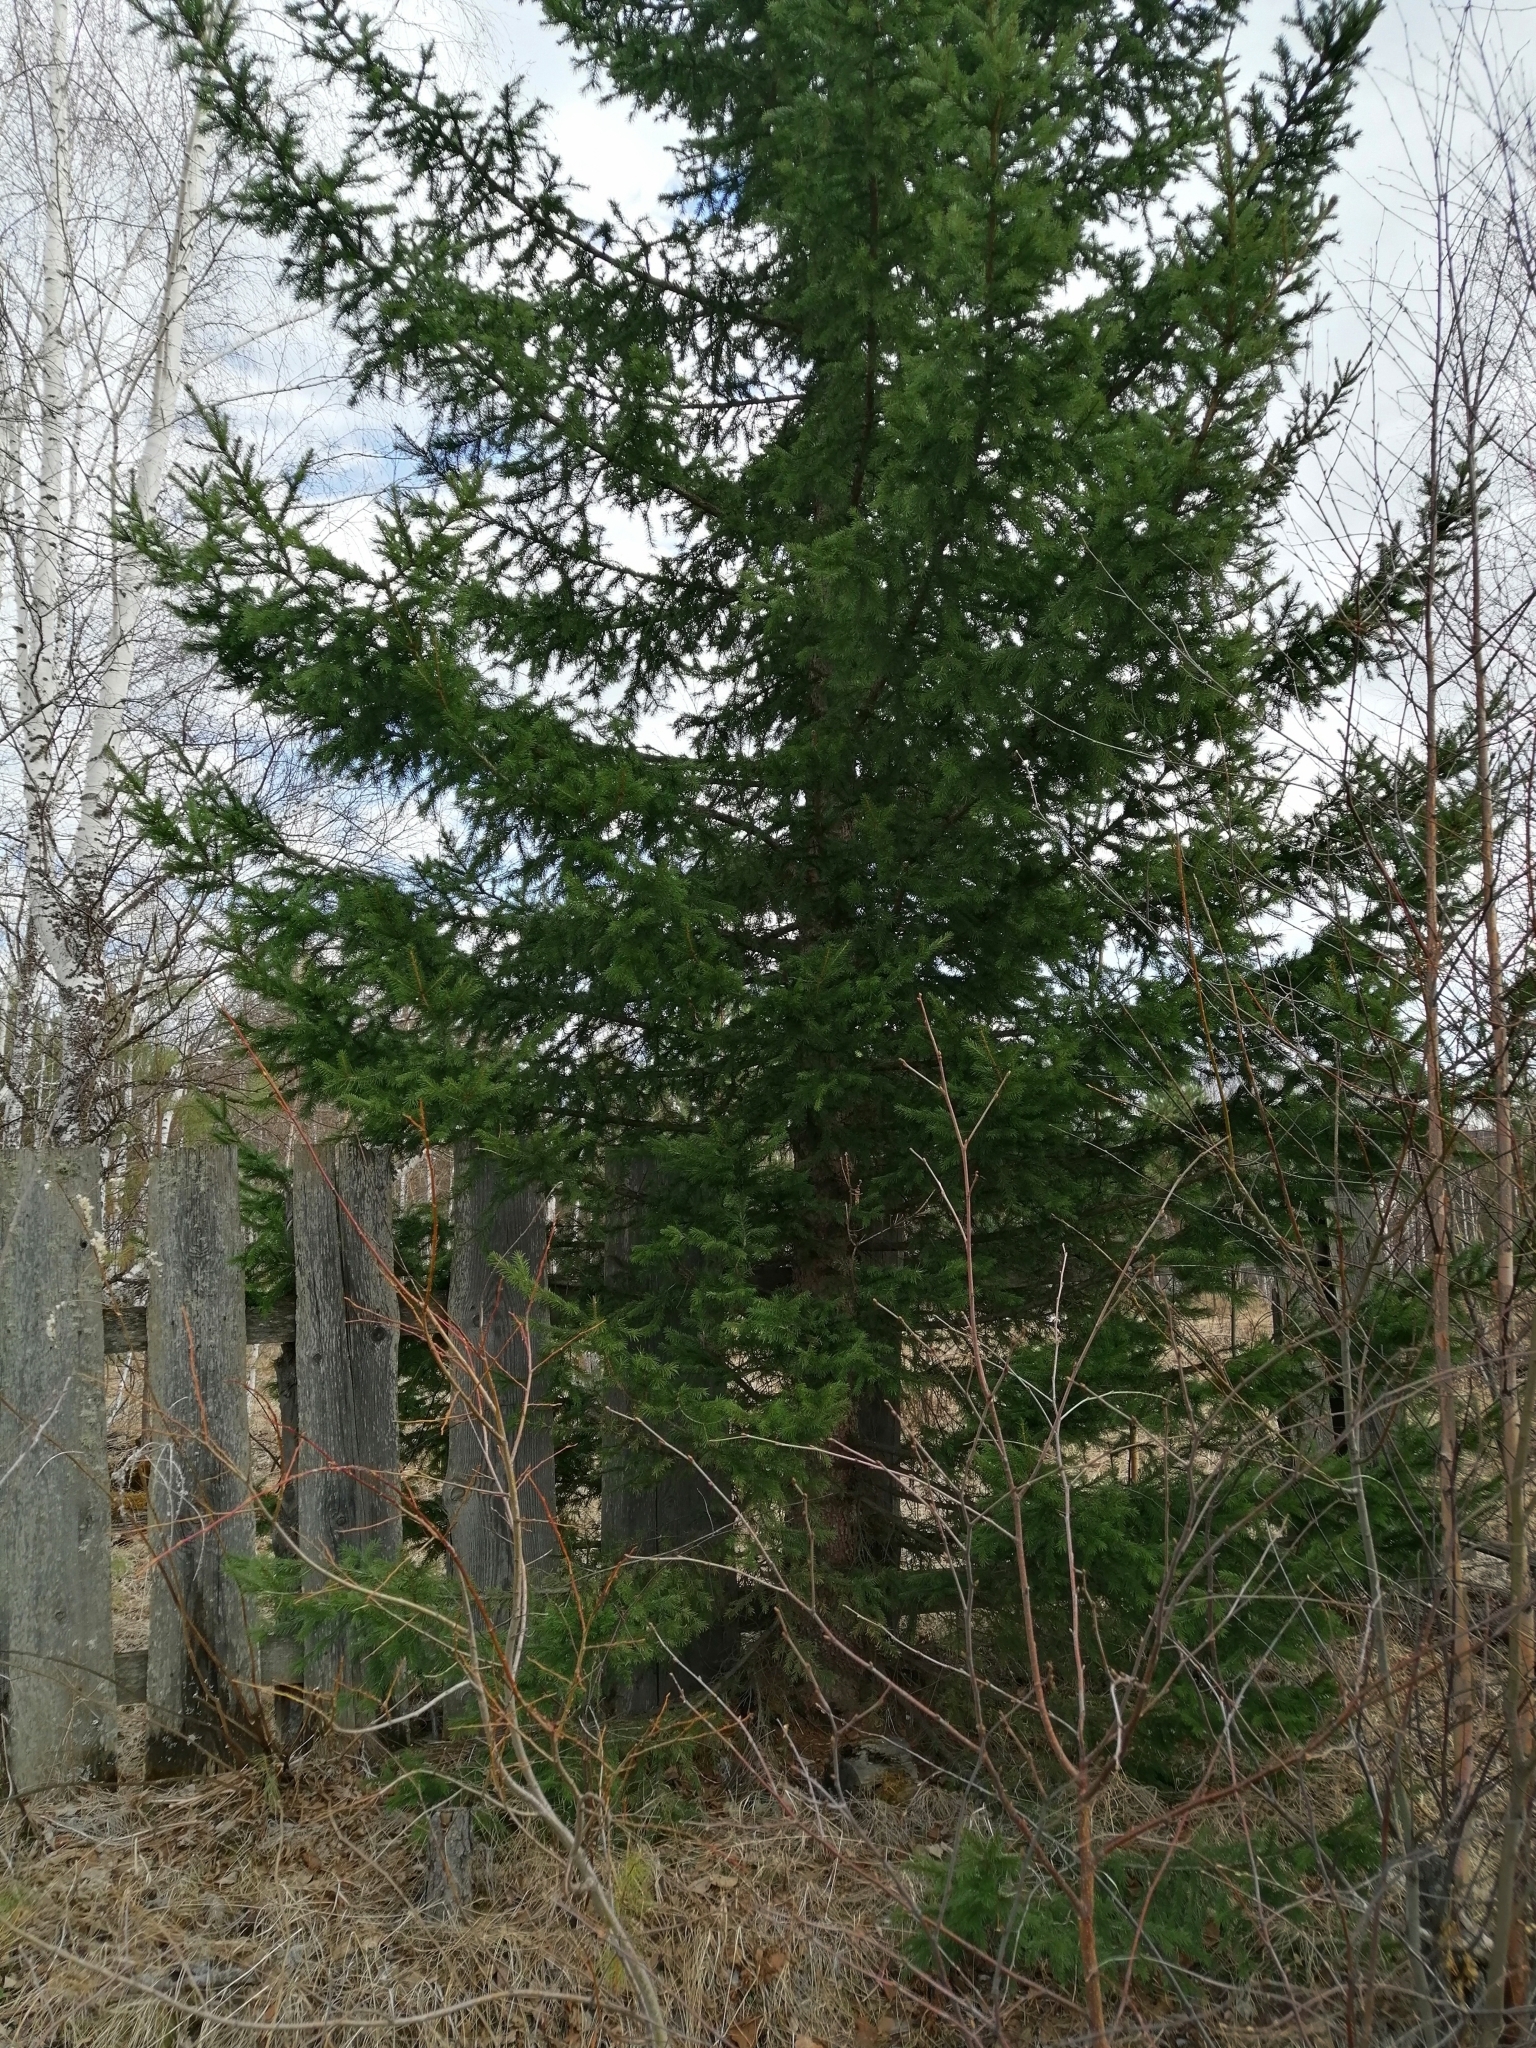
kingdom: Plantae
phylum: Tracheophyta
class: Pinopsida
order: Pinales
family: Pinaceae
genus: Picea
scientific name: Picea obovata
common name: Siberian spruce
